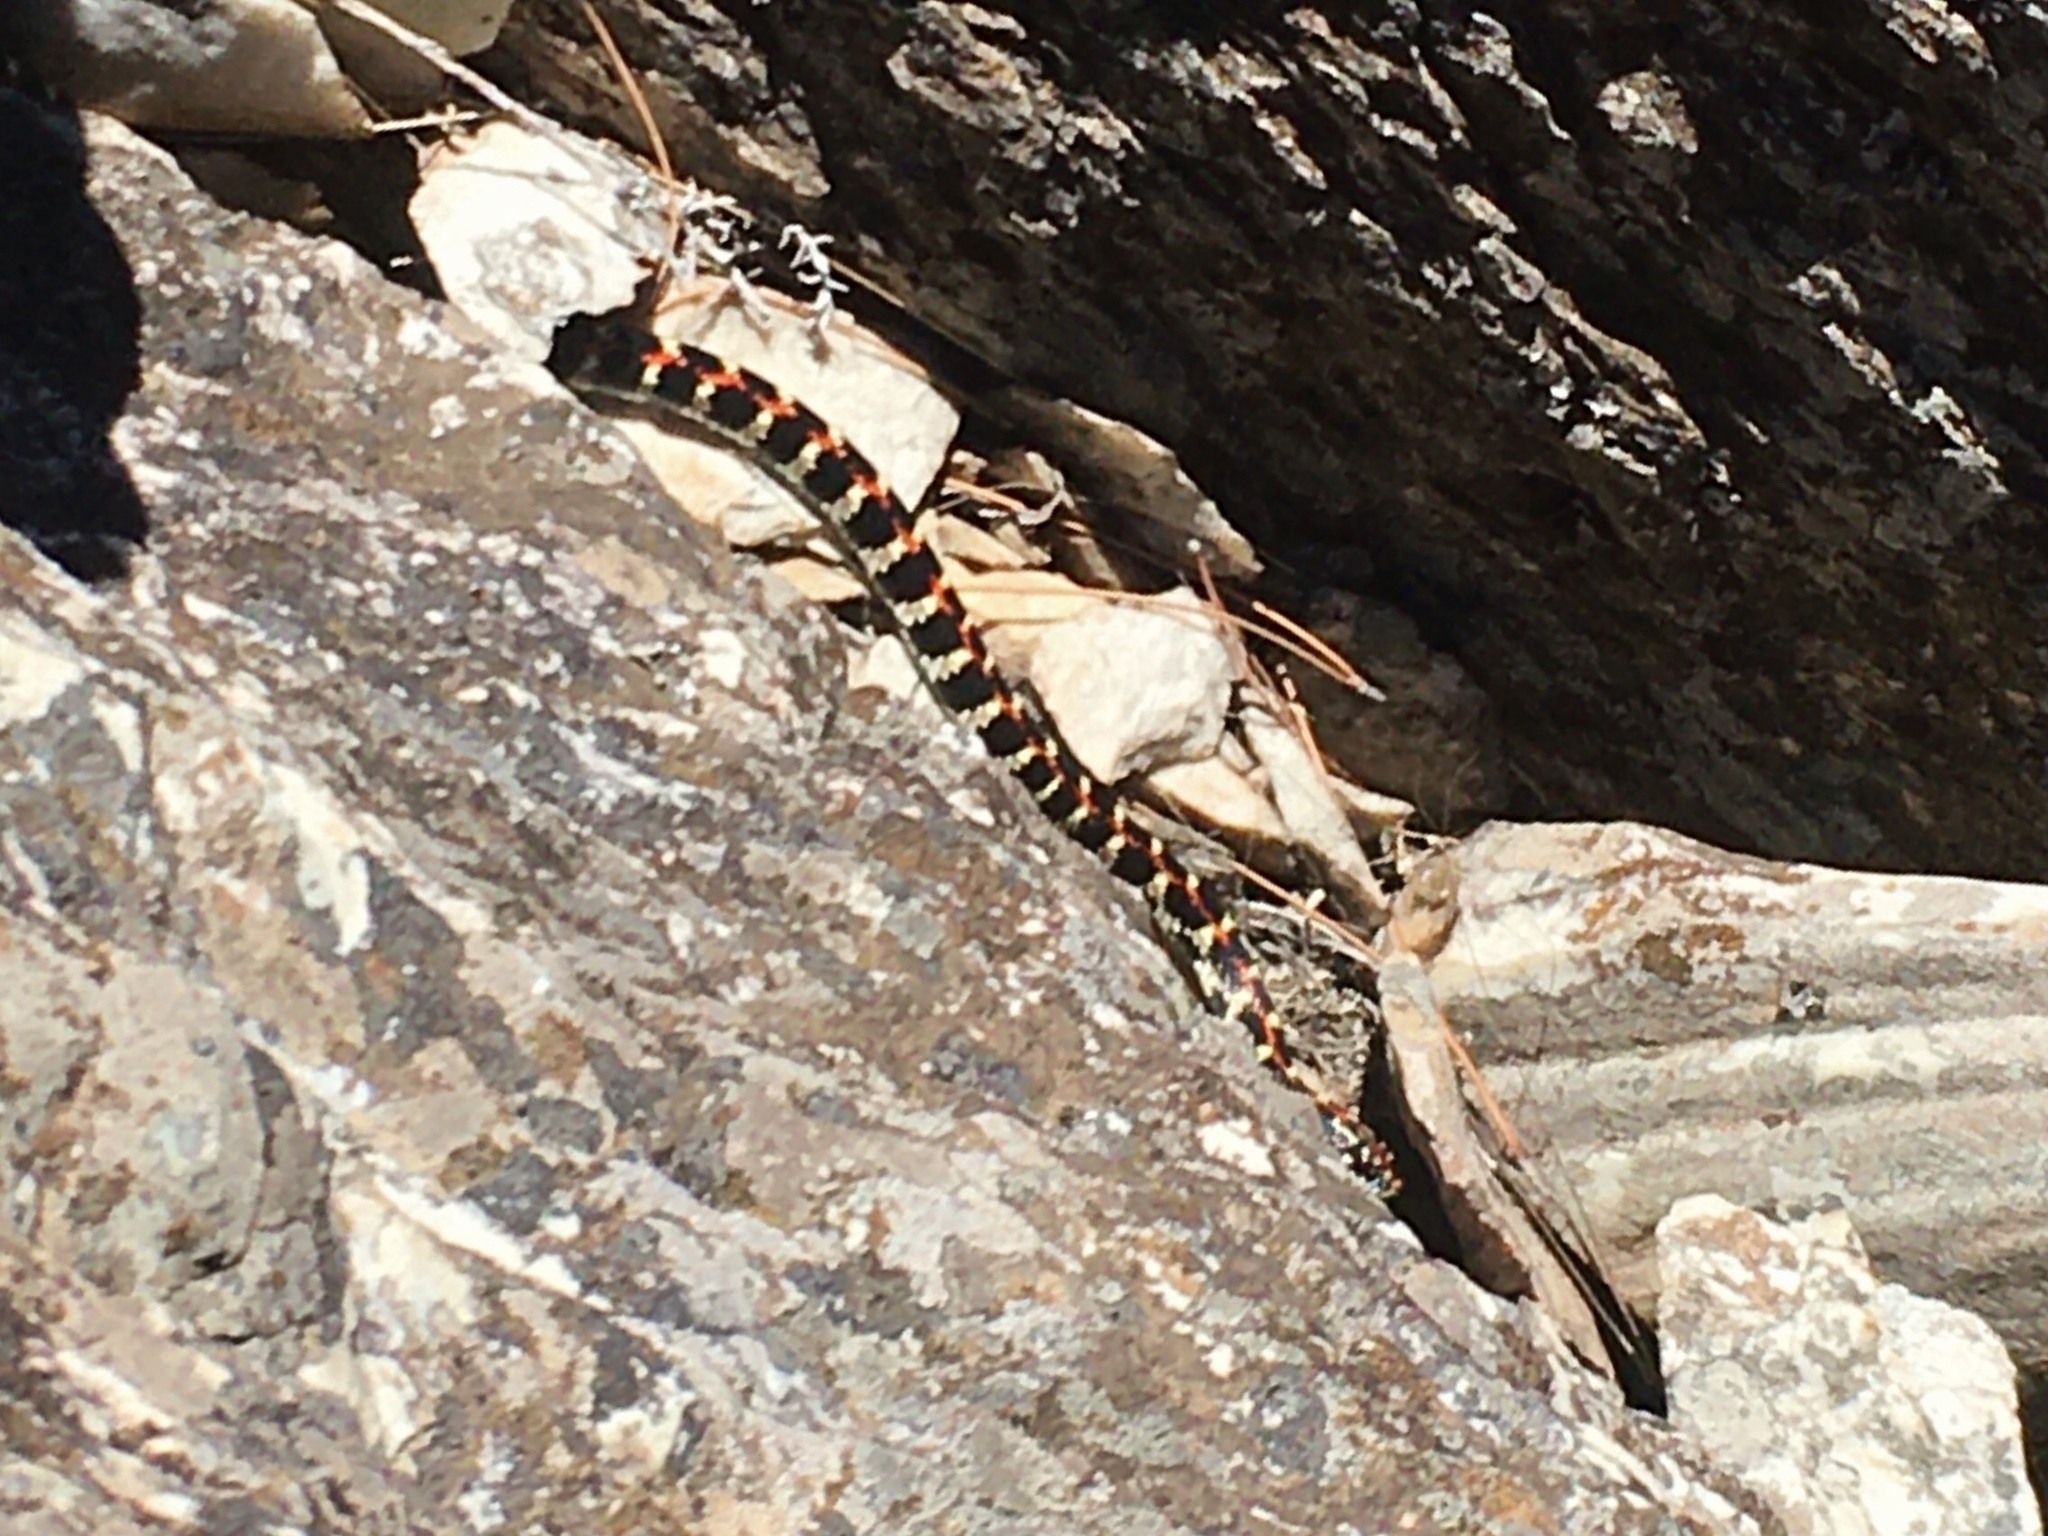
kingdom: Animalia
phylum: Chordata
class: Squamata
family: Colubridae
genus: Lygophis
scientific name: Lygophis elegantissimus
